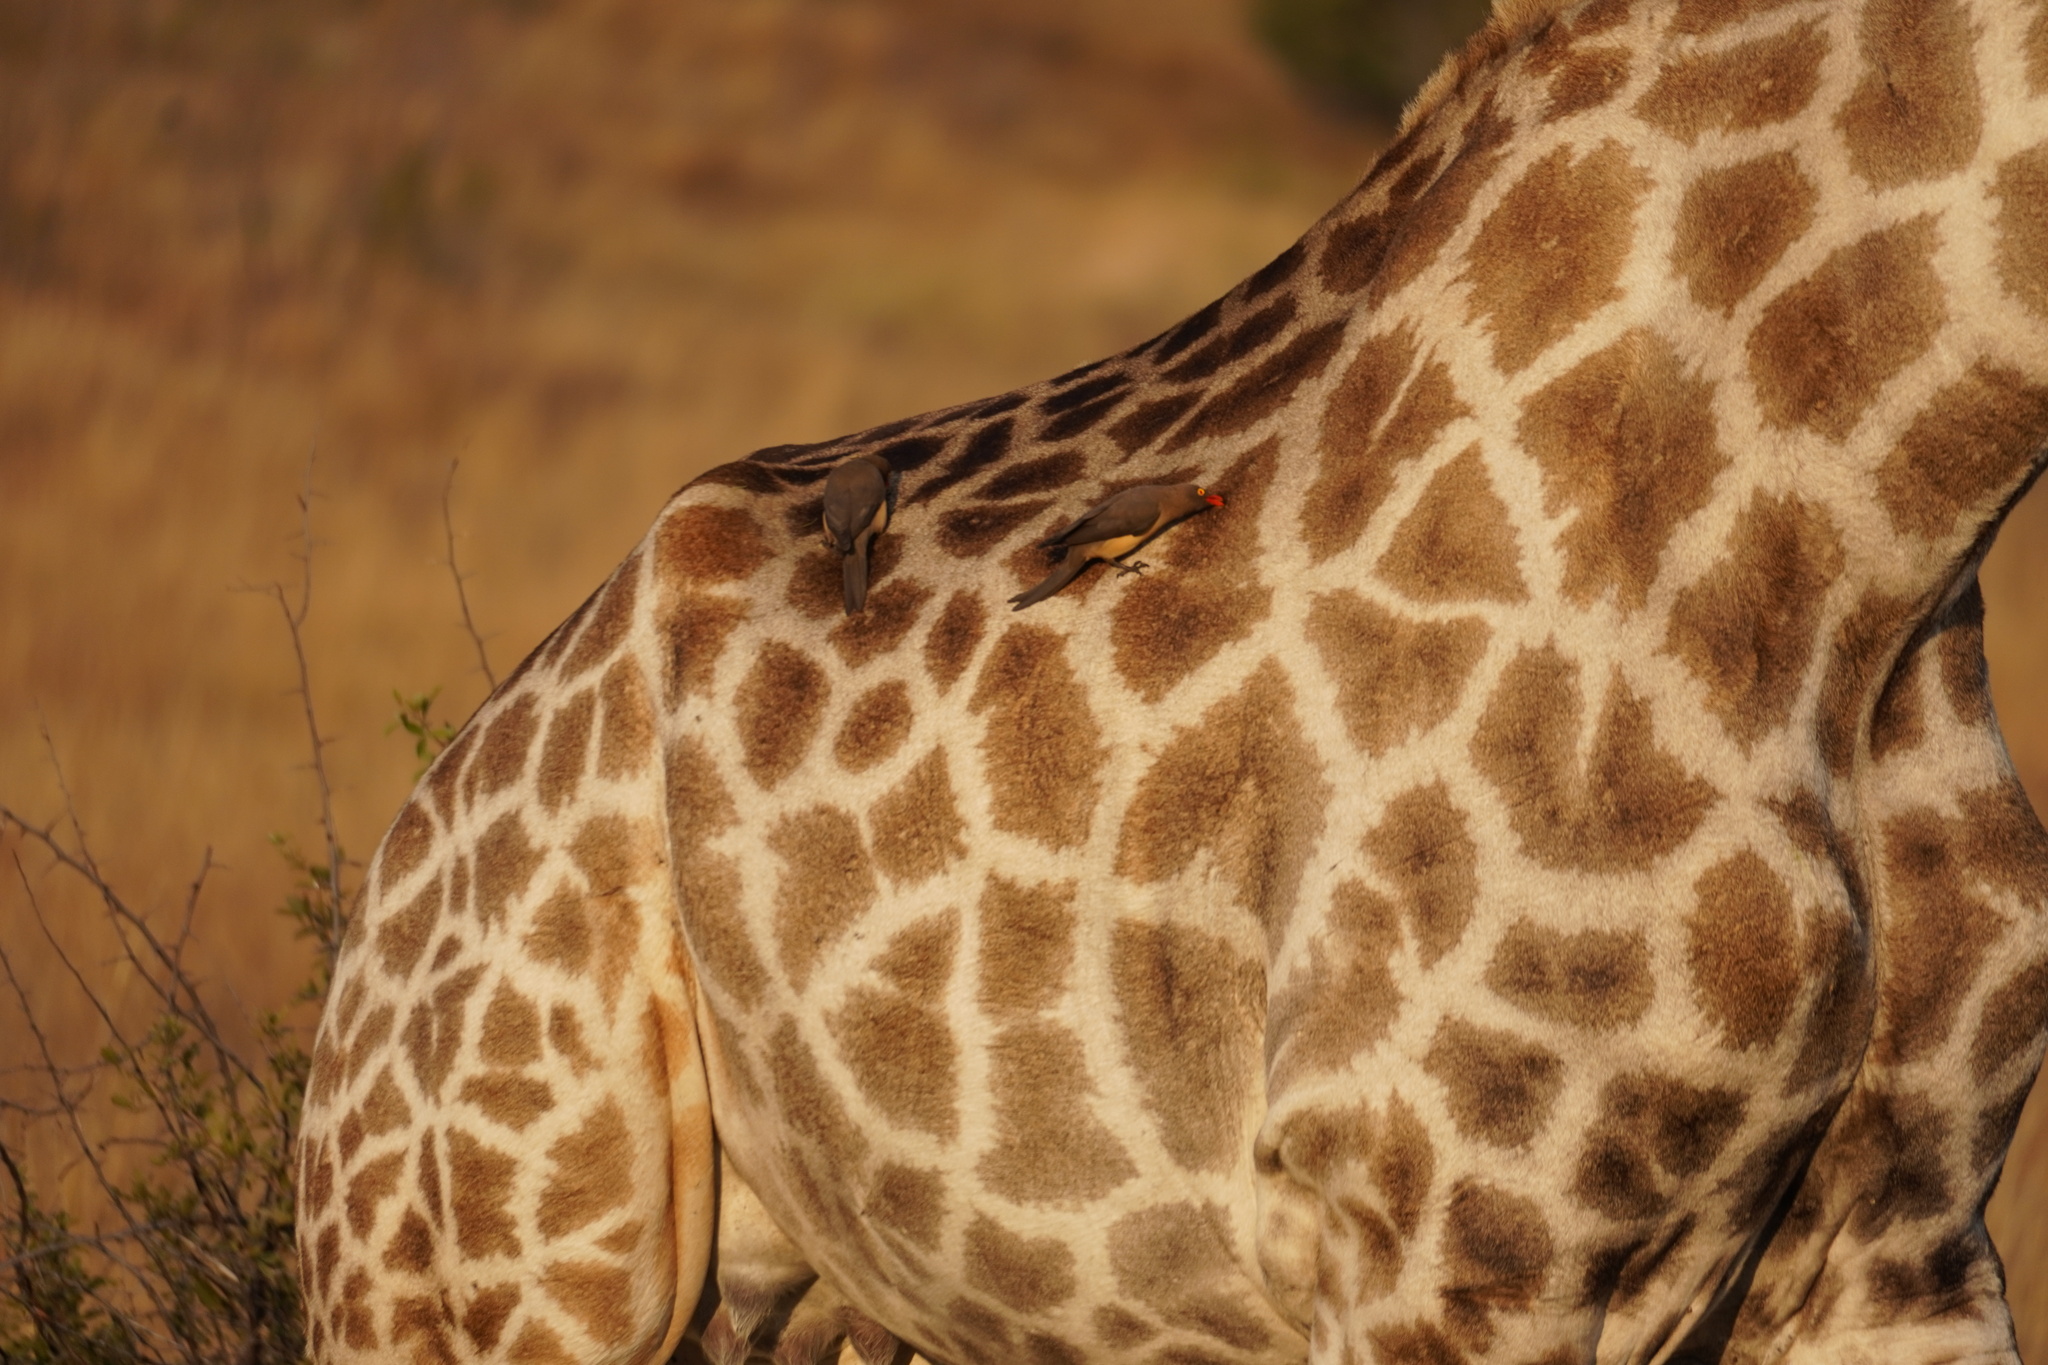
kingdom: Animalia
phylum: Chordata
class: Aves
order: Passeriformes
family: Buphagidae
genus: Buphagus
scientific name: Buphagus erythrorhynchus
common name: Red-billed oxpecker
